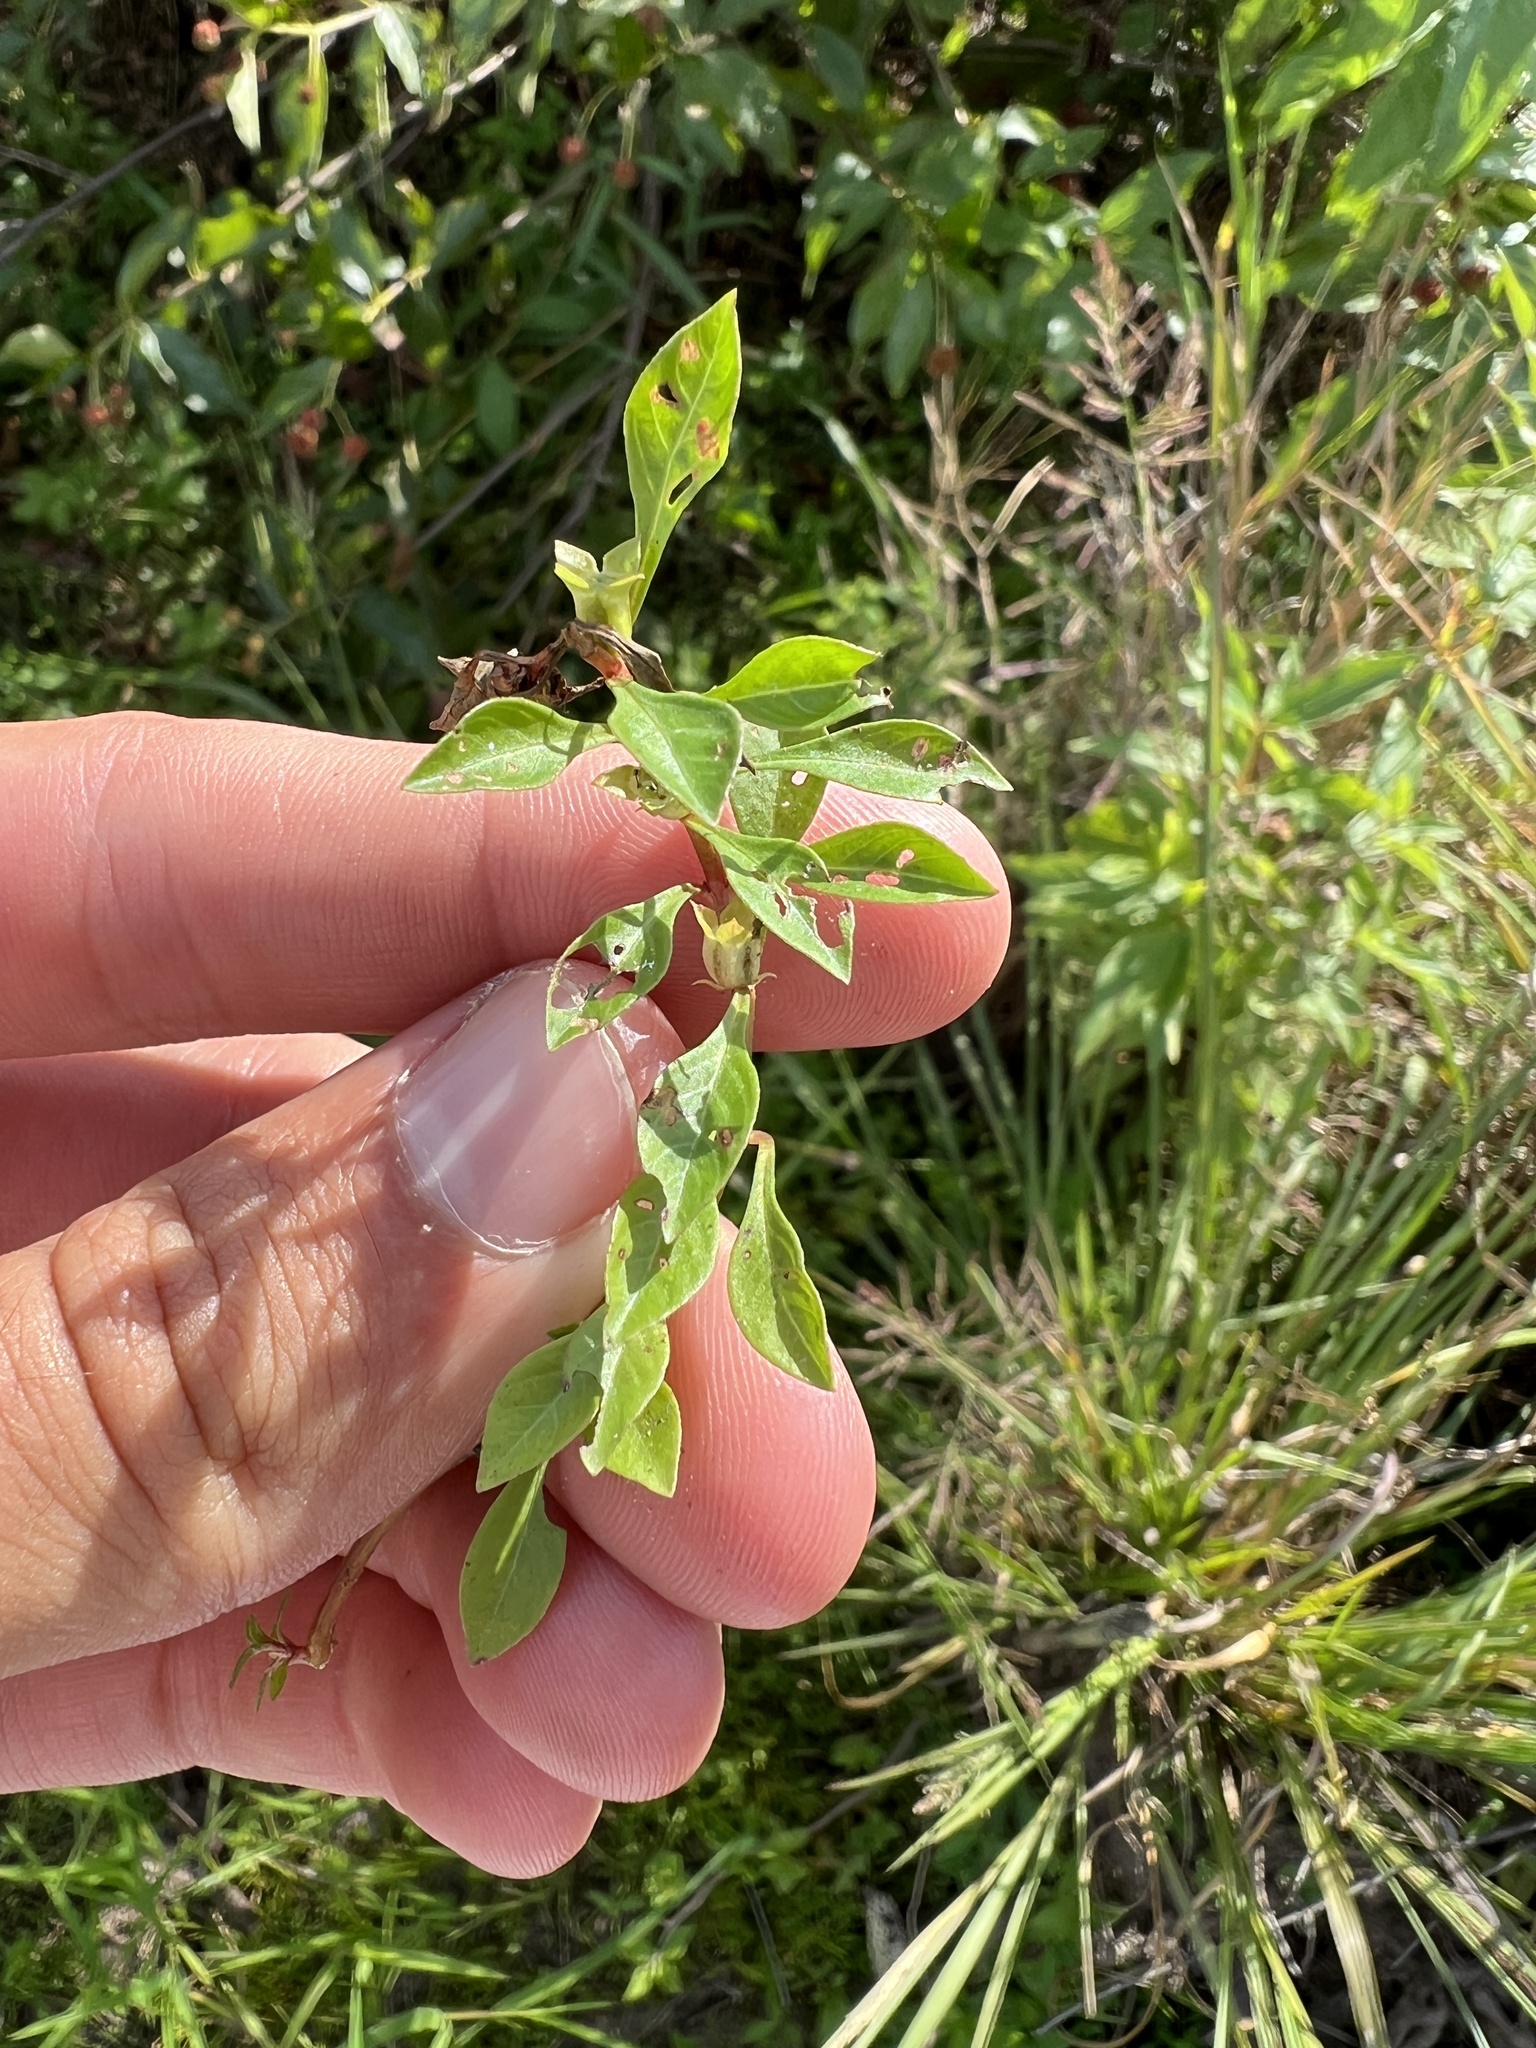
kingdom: Plantae
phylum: Tracheophyta
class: Magnoliopsida
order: Myrtales
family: Onagraceae
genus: Ludwigia
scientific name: Ludwigia palustris
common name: Hampshire-purslane
